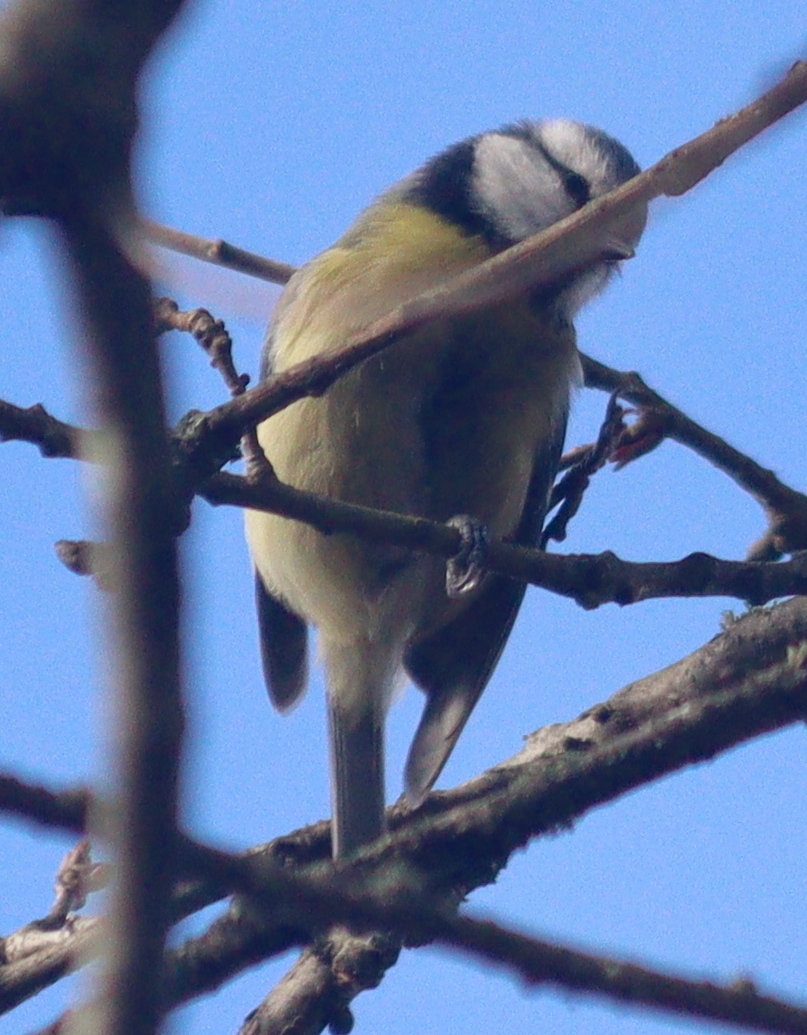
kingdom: Animalia
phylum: Chordata
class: Aves
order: Passeriformes
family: Paridae
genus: Cyanistes
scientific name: Cyanistes caeruleus
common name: Eurasian blue tit
